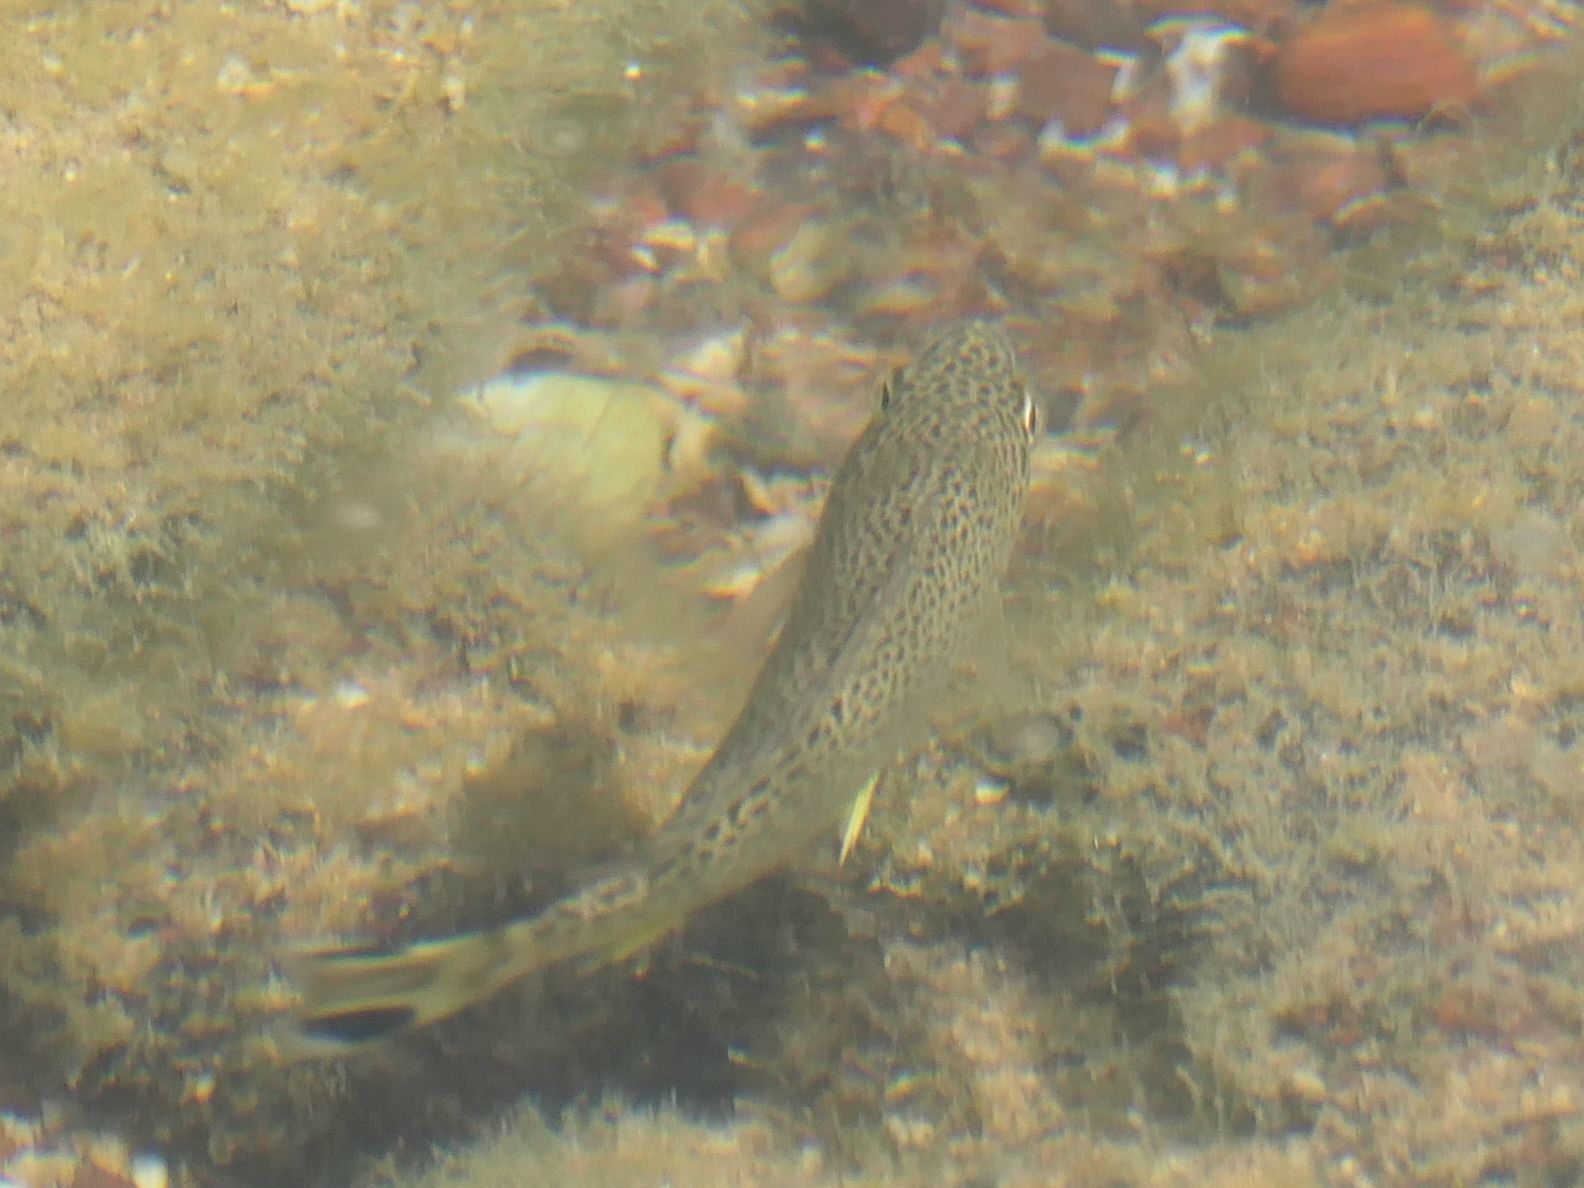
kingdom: Animalia
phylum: Chordata
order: Perciformes
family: Terapontidae
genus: Amniataba
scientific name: Amniataba caudavittata
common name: English wyandotte
